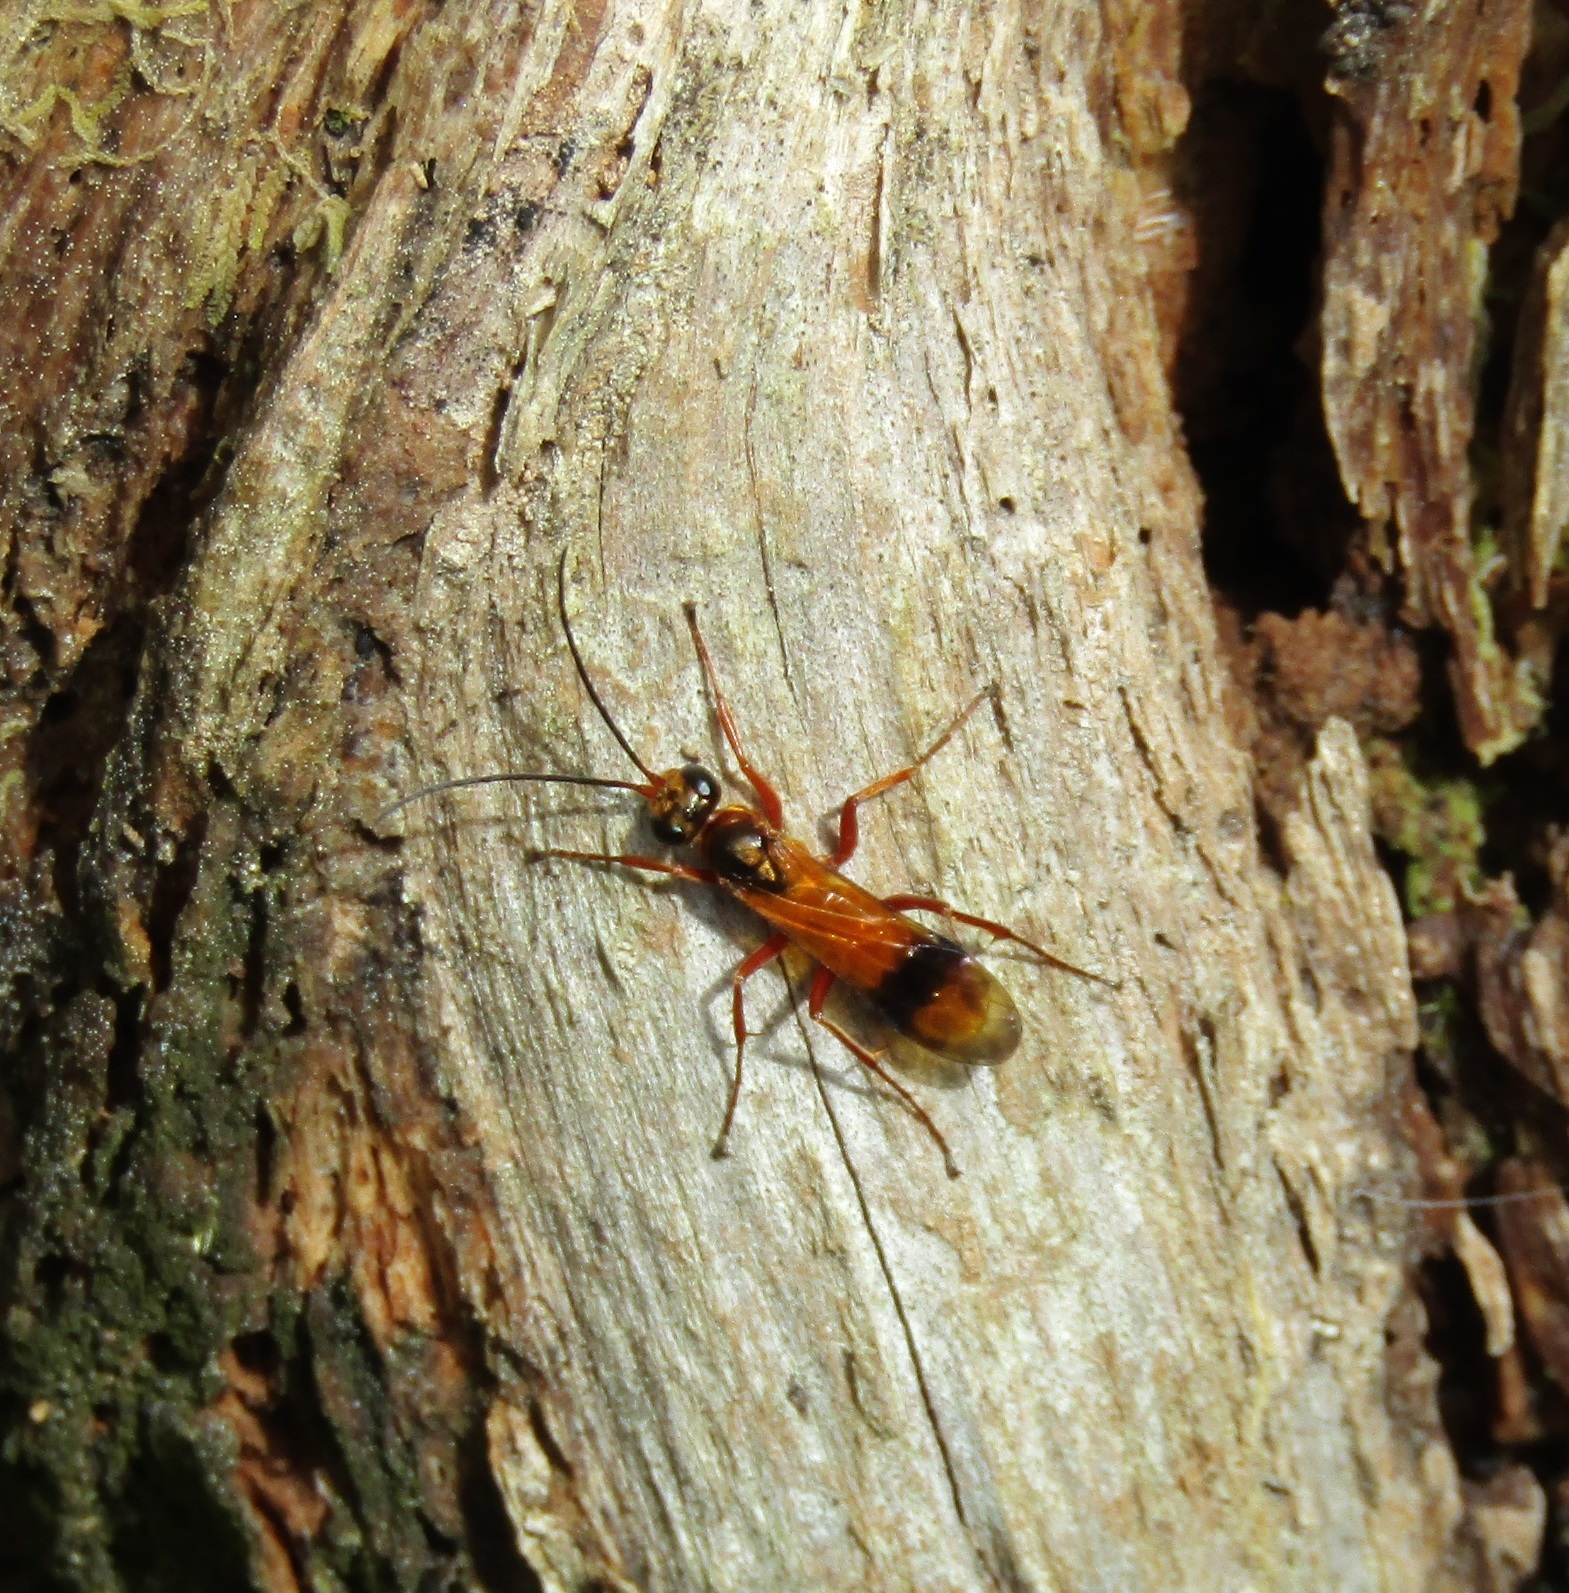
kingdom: Animalia
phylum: Arthropoda
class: Insecta
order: Hymenoptera
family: Pompilidae
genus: Sphictostethus
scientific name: Sphictostethus calvus
